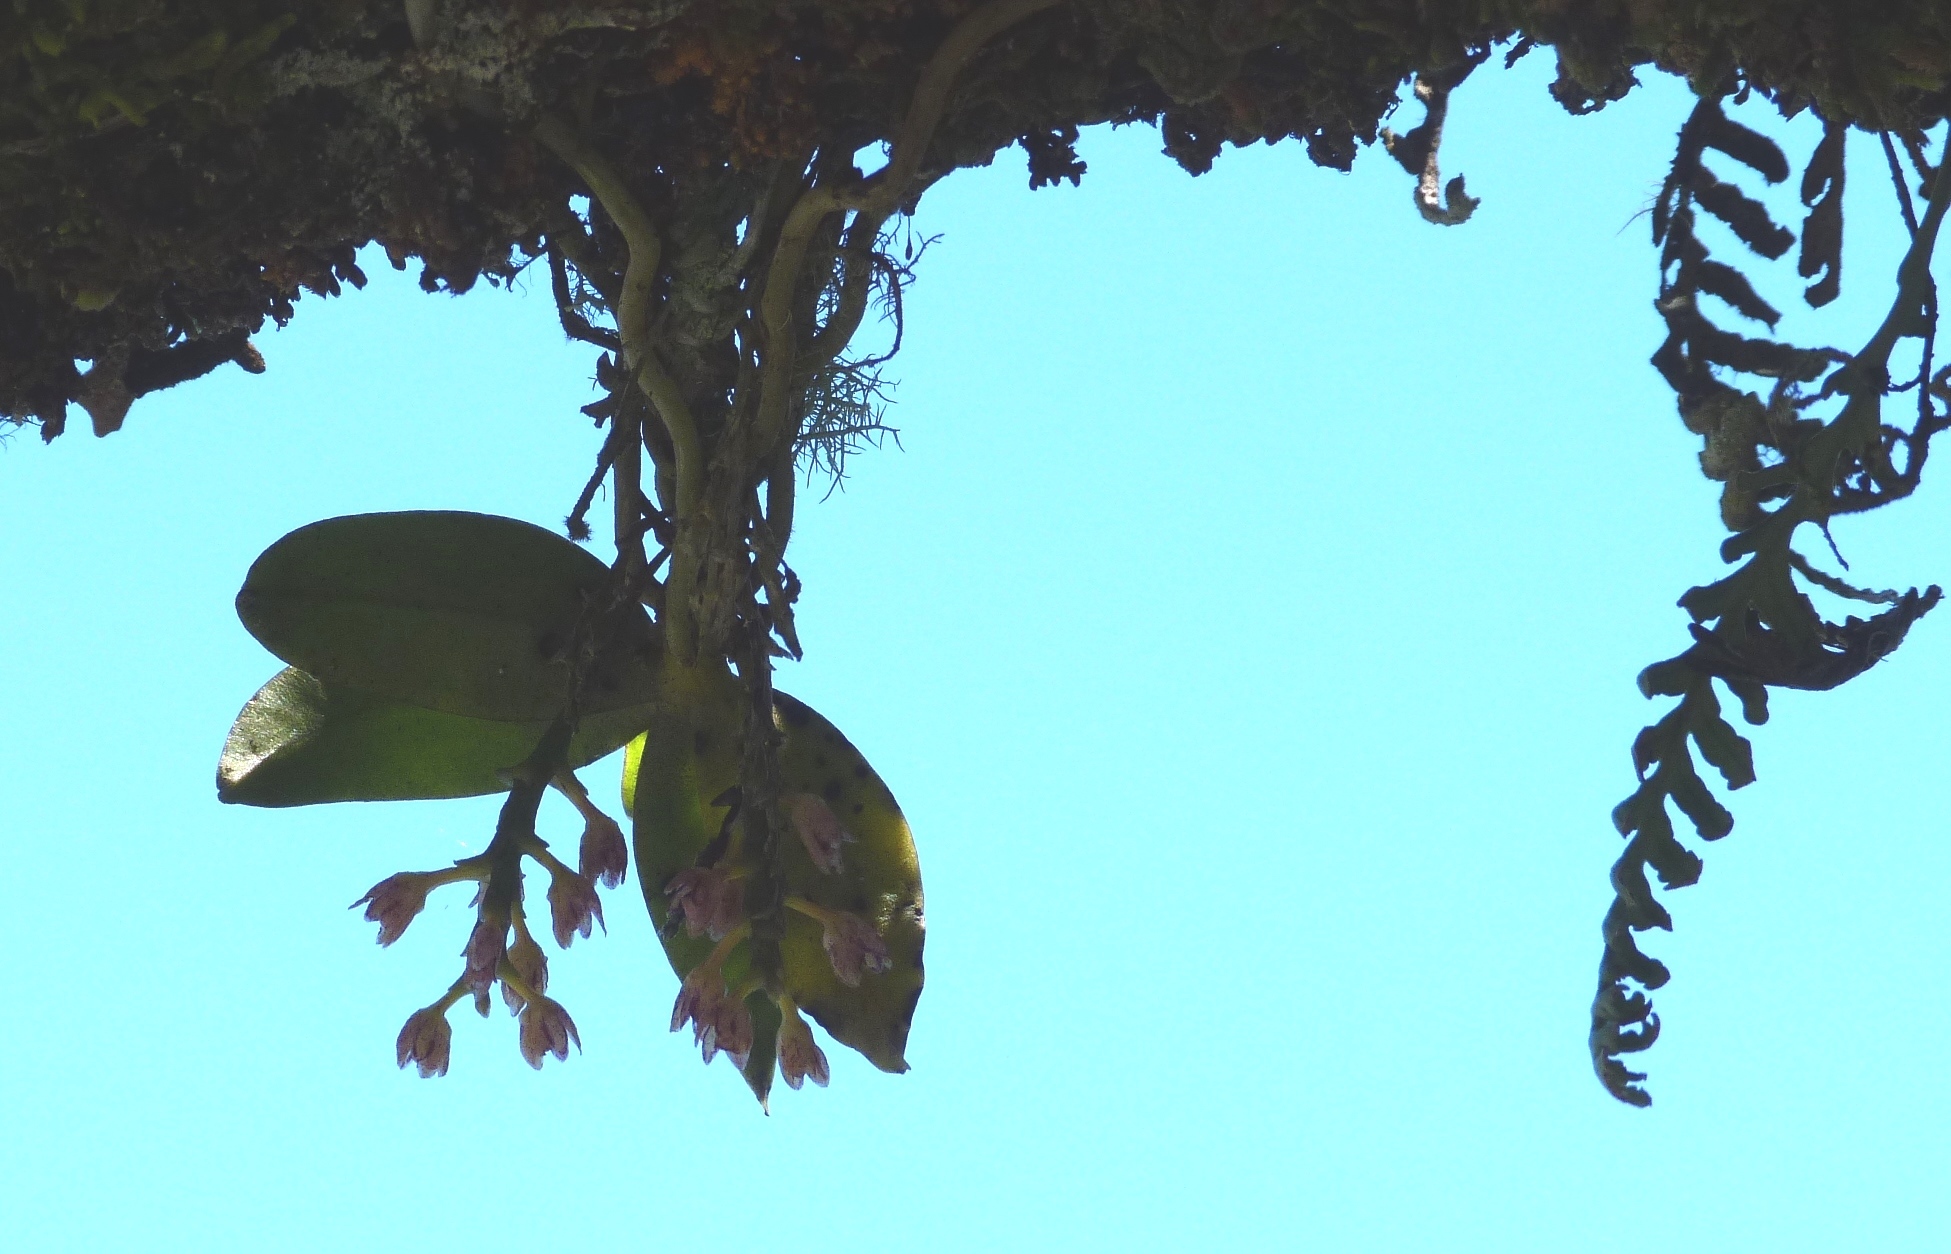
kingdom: Plantae
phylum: Tracheophyta
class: Liliopsida
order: Asparagales
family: Orchidaceae
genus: Drymoanthus
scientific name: Drymoanthus adversus
